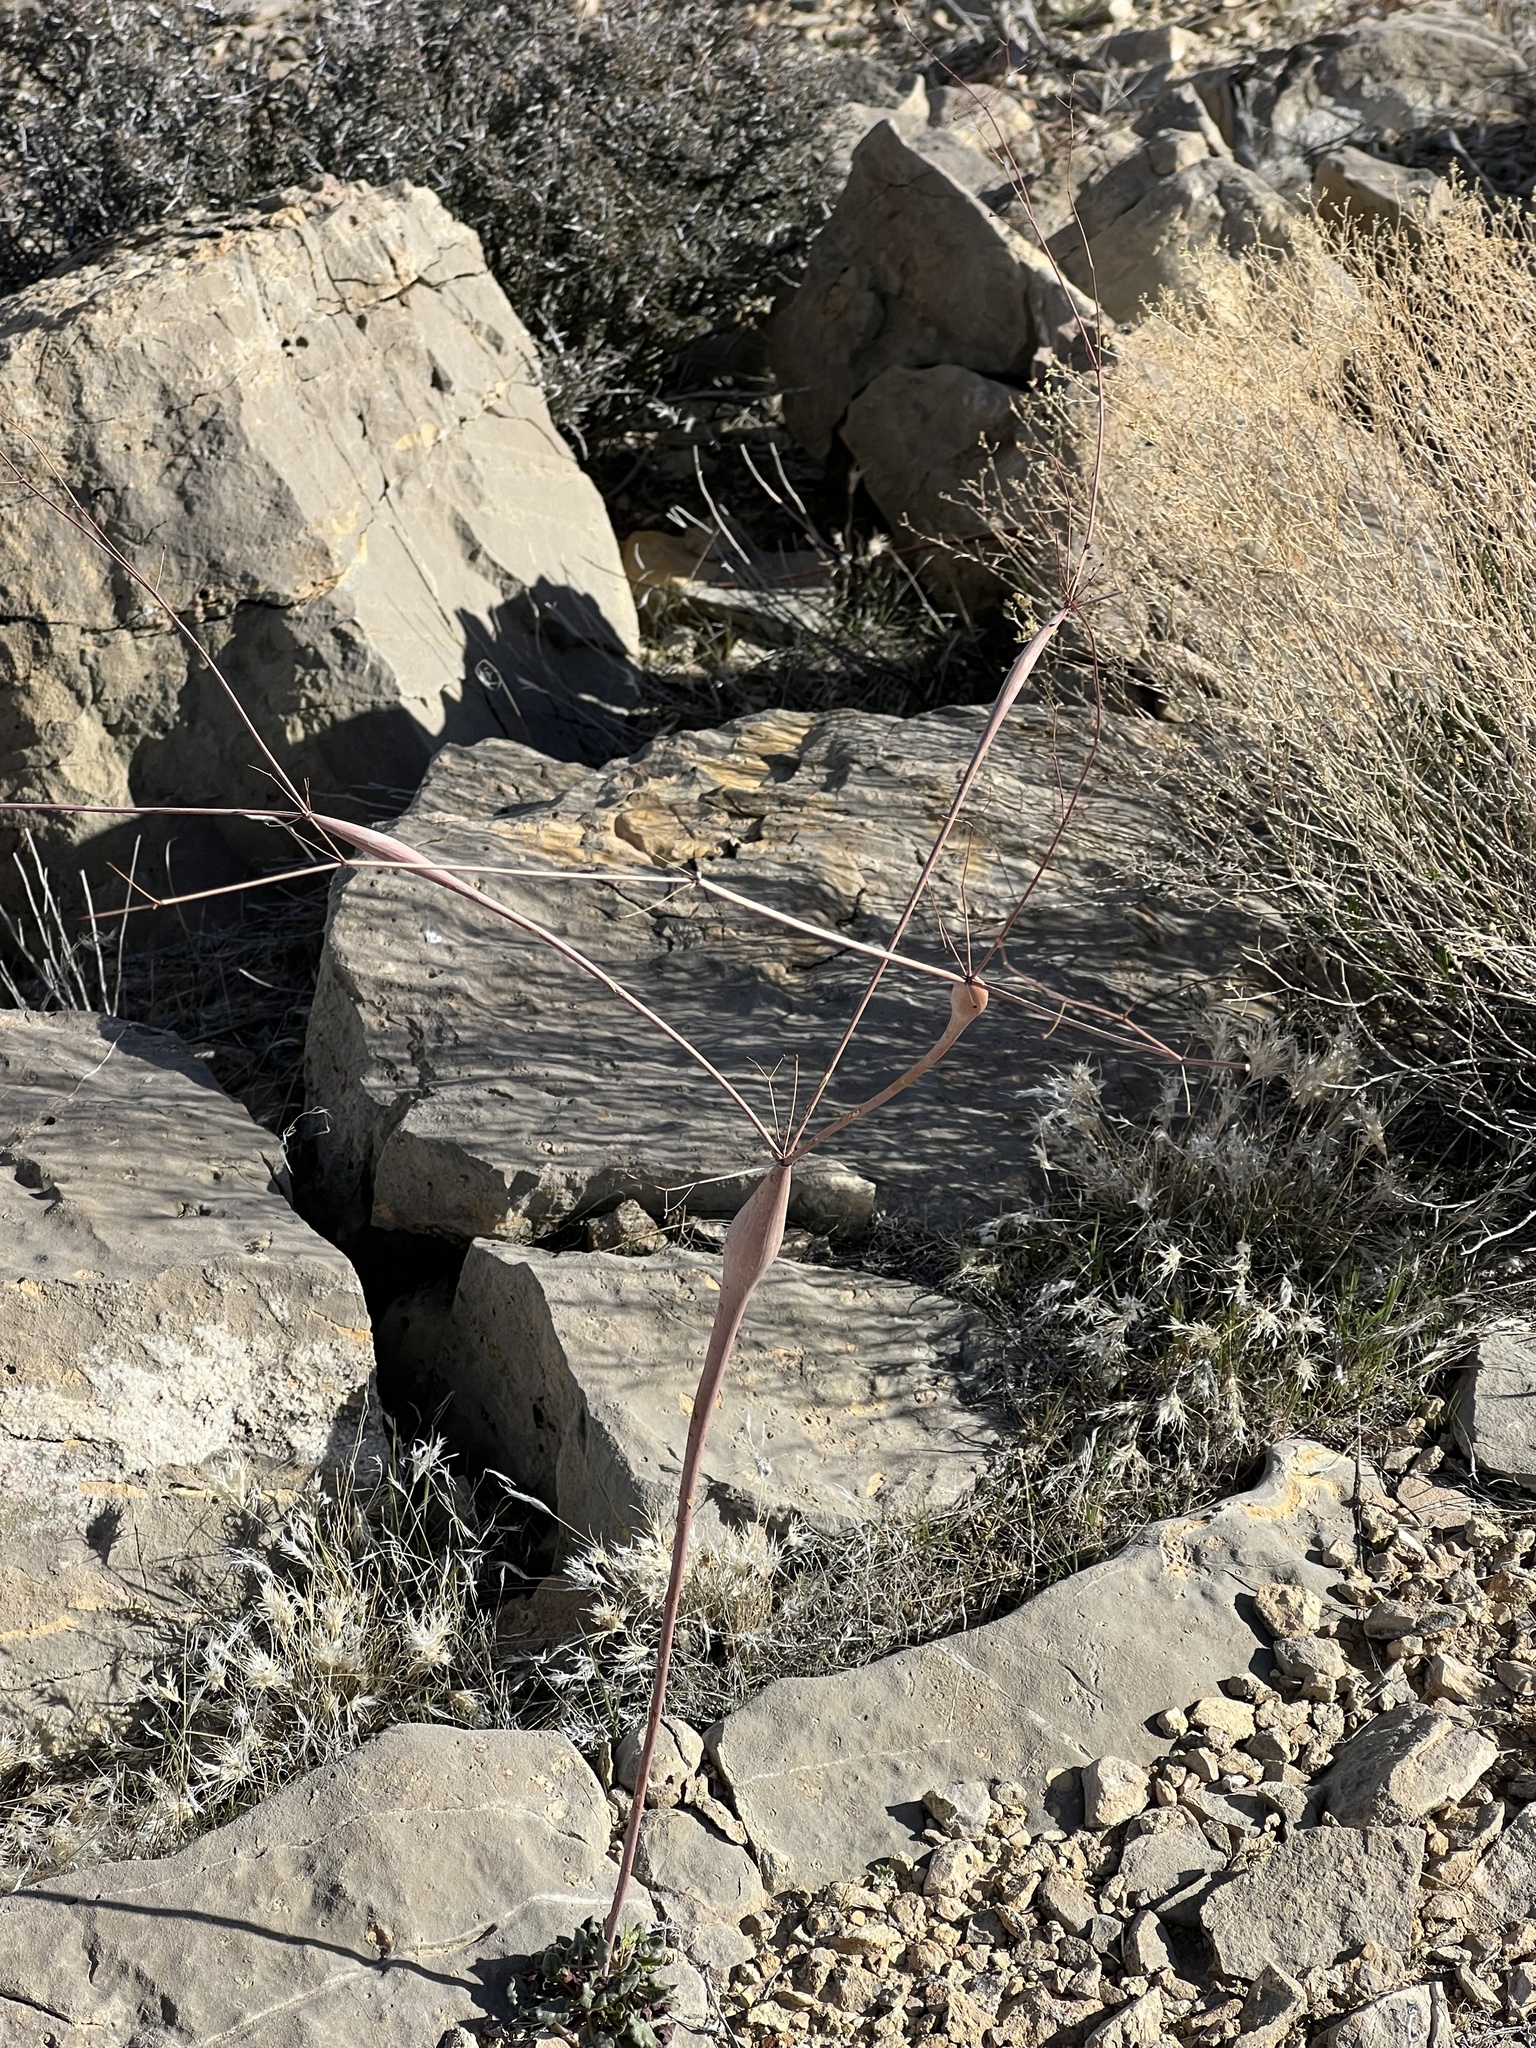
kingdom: Plantae
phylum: Tracheophyta
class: Magnoliopsida
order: Caryophyllales
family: Polygonaceae
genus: Eriogonum
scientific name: Eriogonum inflatum
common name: Desert trumpet
